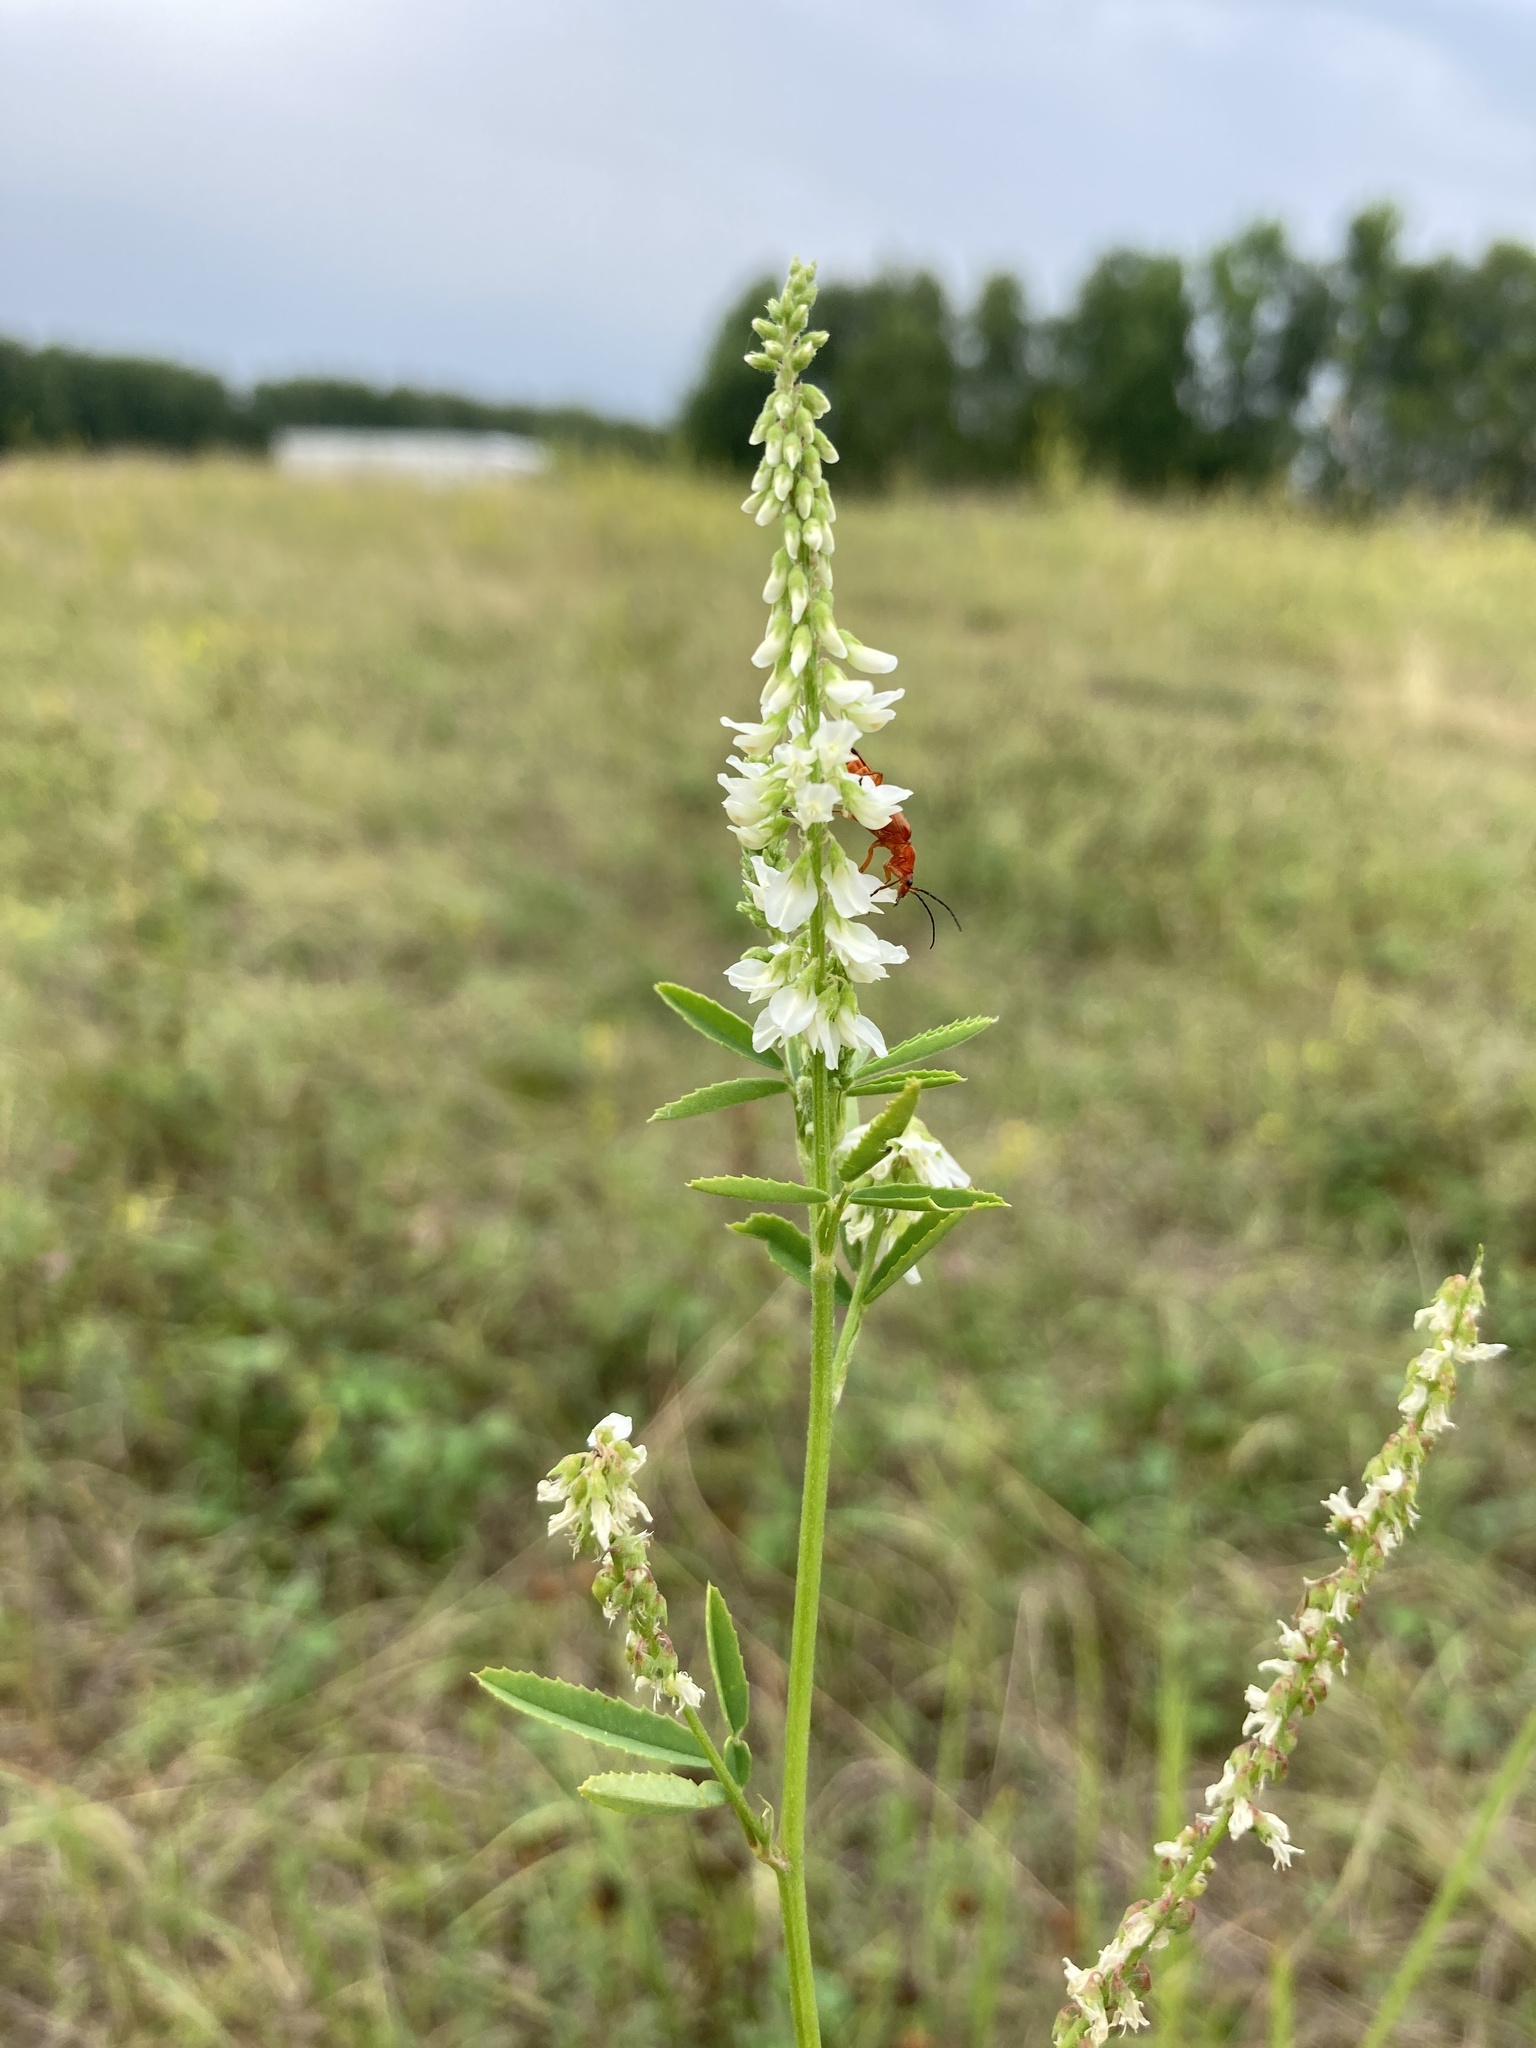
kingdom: Plantae
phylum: Tracheophyta
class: Magnoliopsida
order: Fabales
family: Fabaceae
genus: Melilotus
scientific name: Melilotus albus
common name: White melilot
